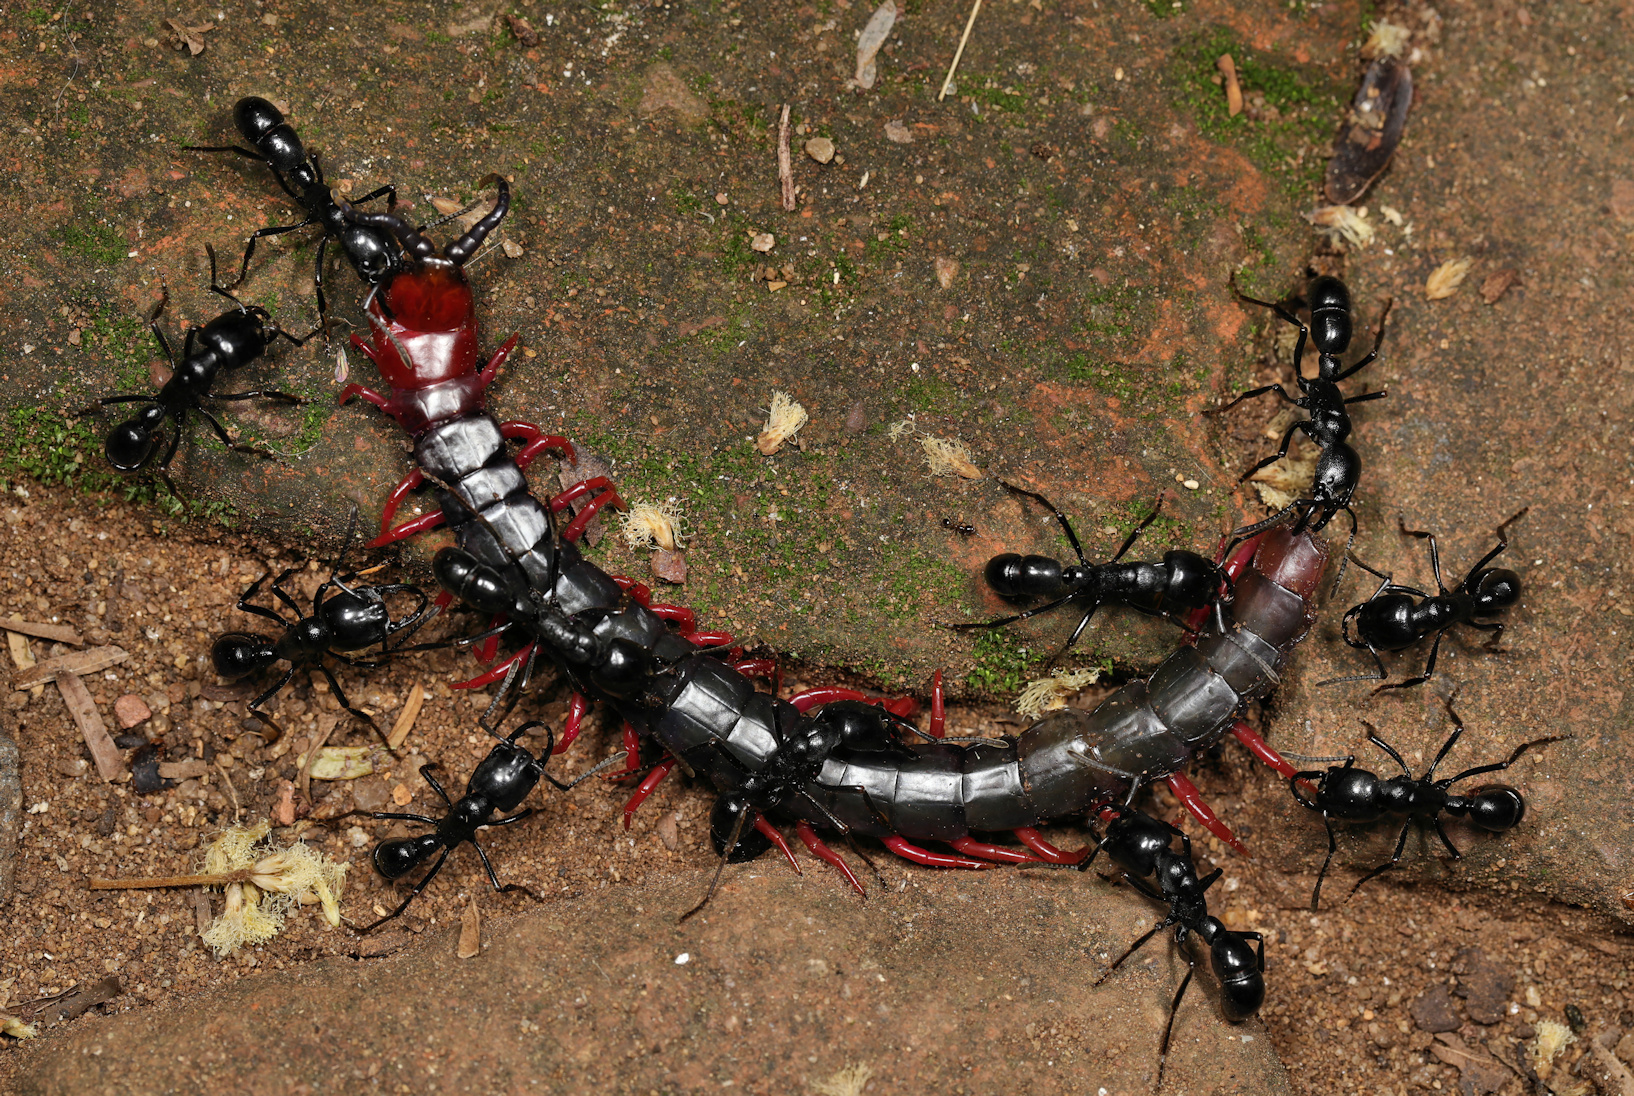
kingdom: Animalia
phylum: Arthropoda
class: Insecta
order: Hymenoptera
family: Formicidae
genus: Plectroctena
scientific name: Plectroctena mandibularis
